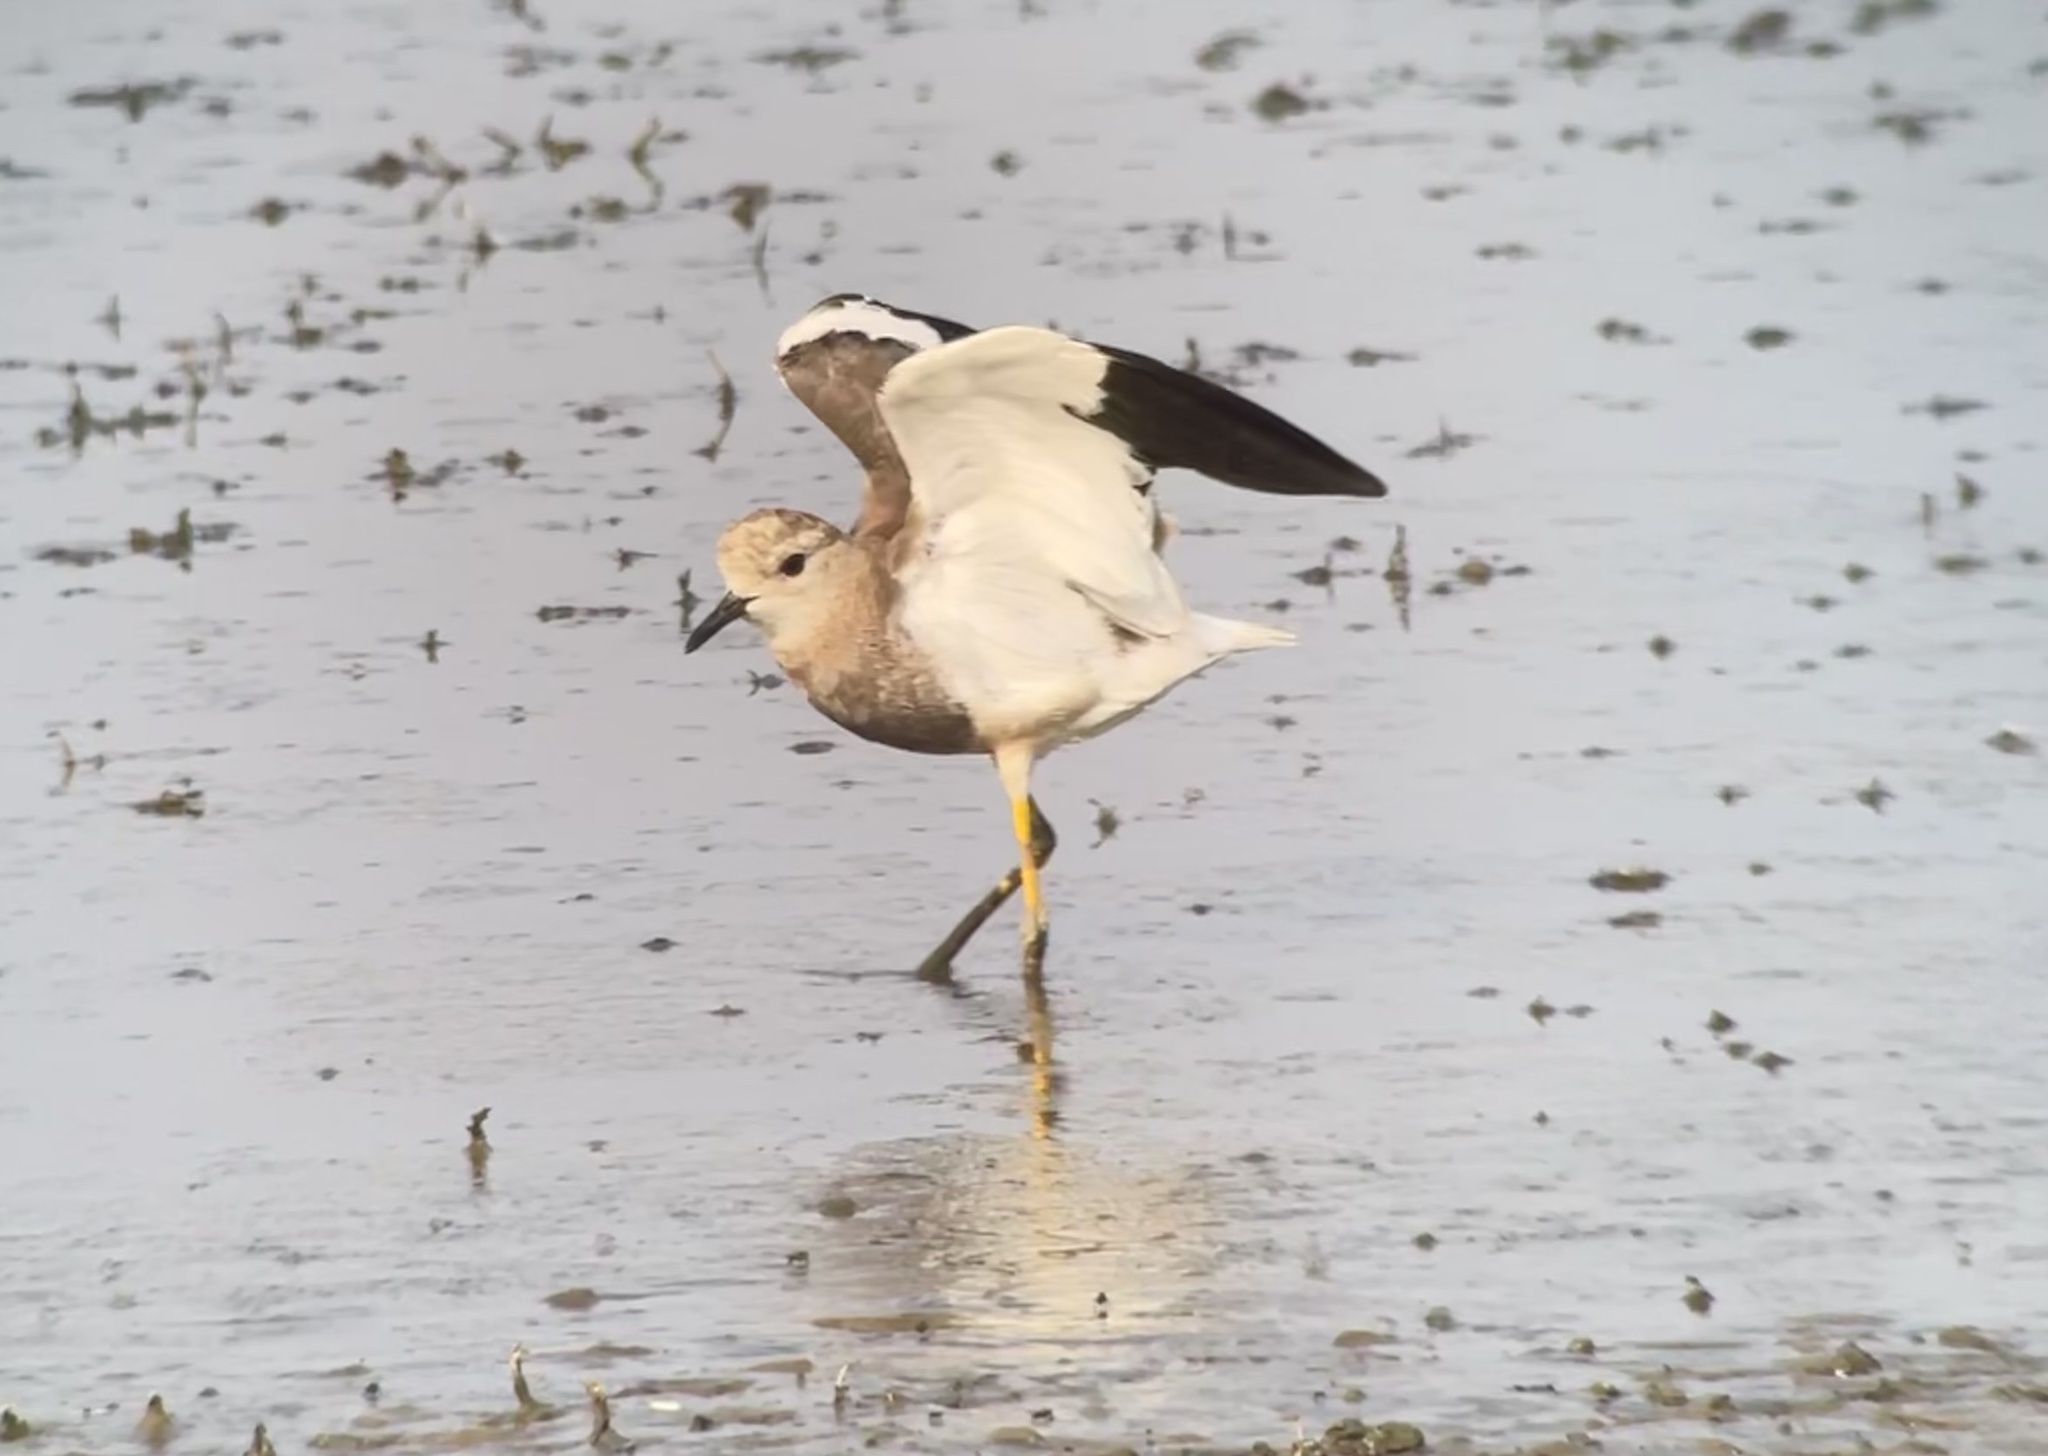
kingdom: Animalia
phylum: Chordata
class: Aves
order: Charadriiformes
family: Charadriidae
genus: Vanellus
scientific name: Vanellus leucurus
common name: White-tailed lapwing
